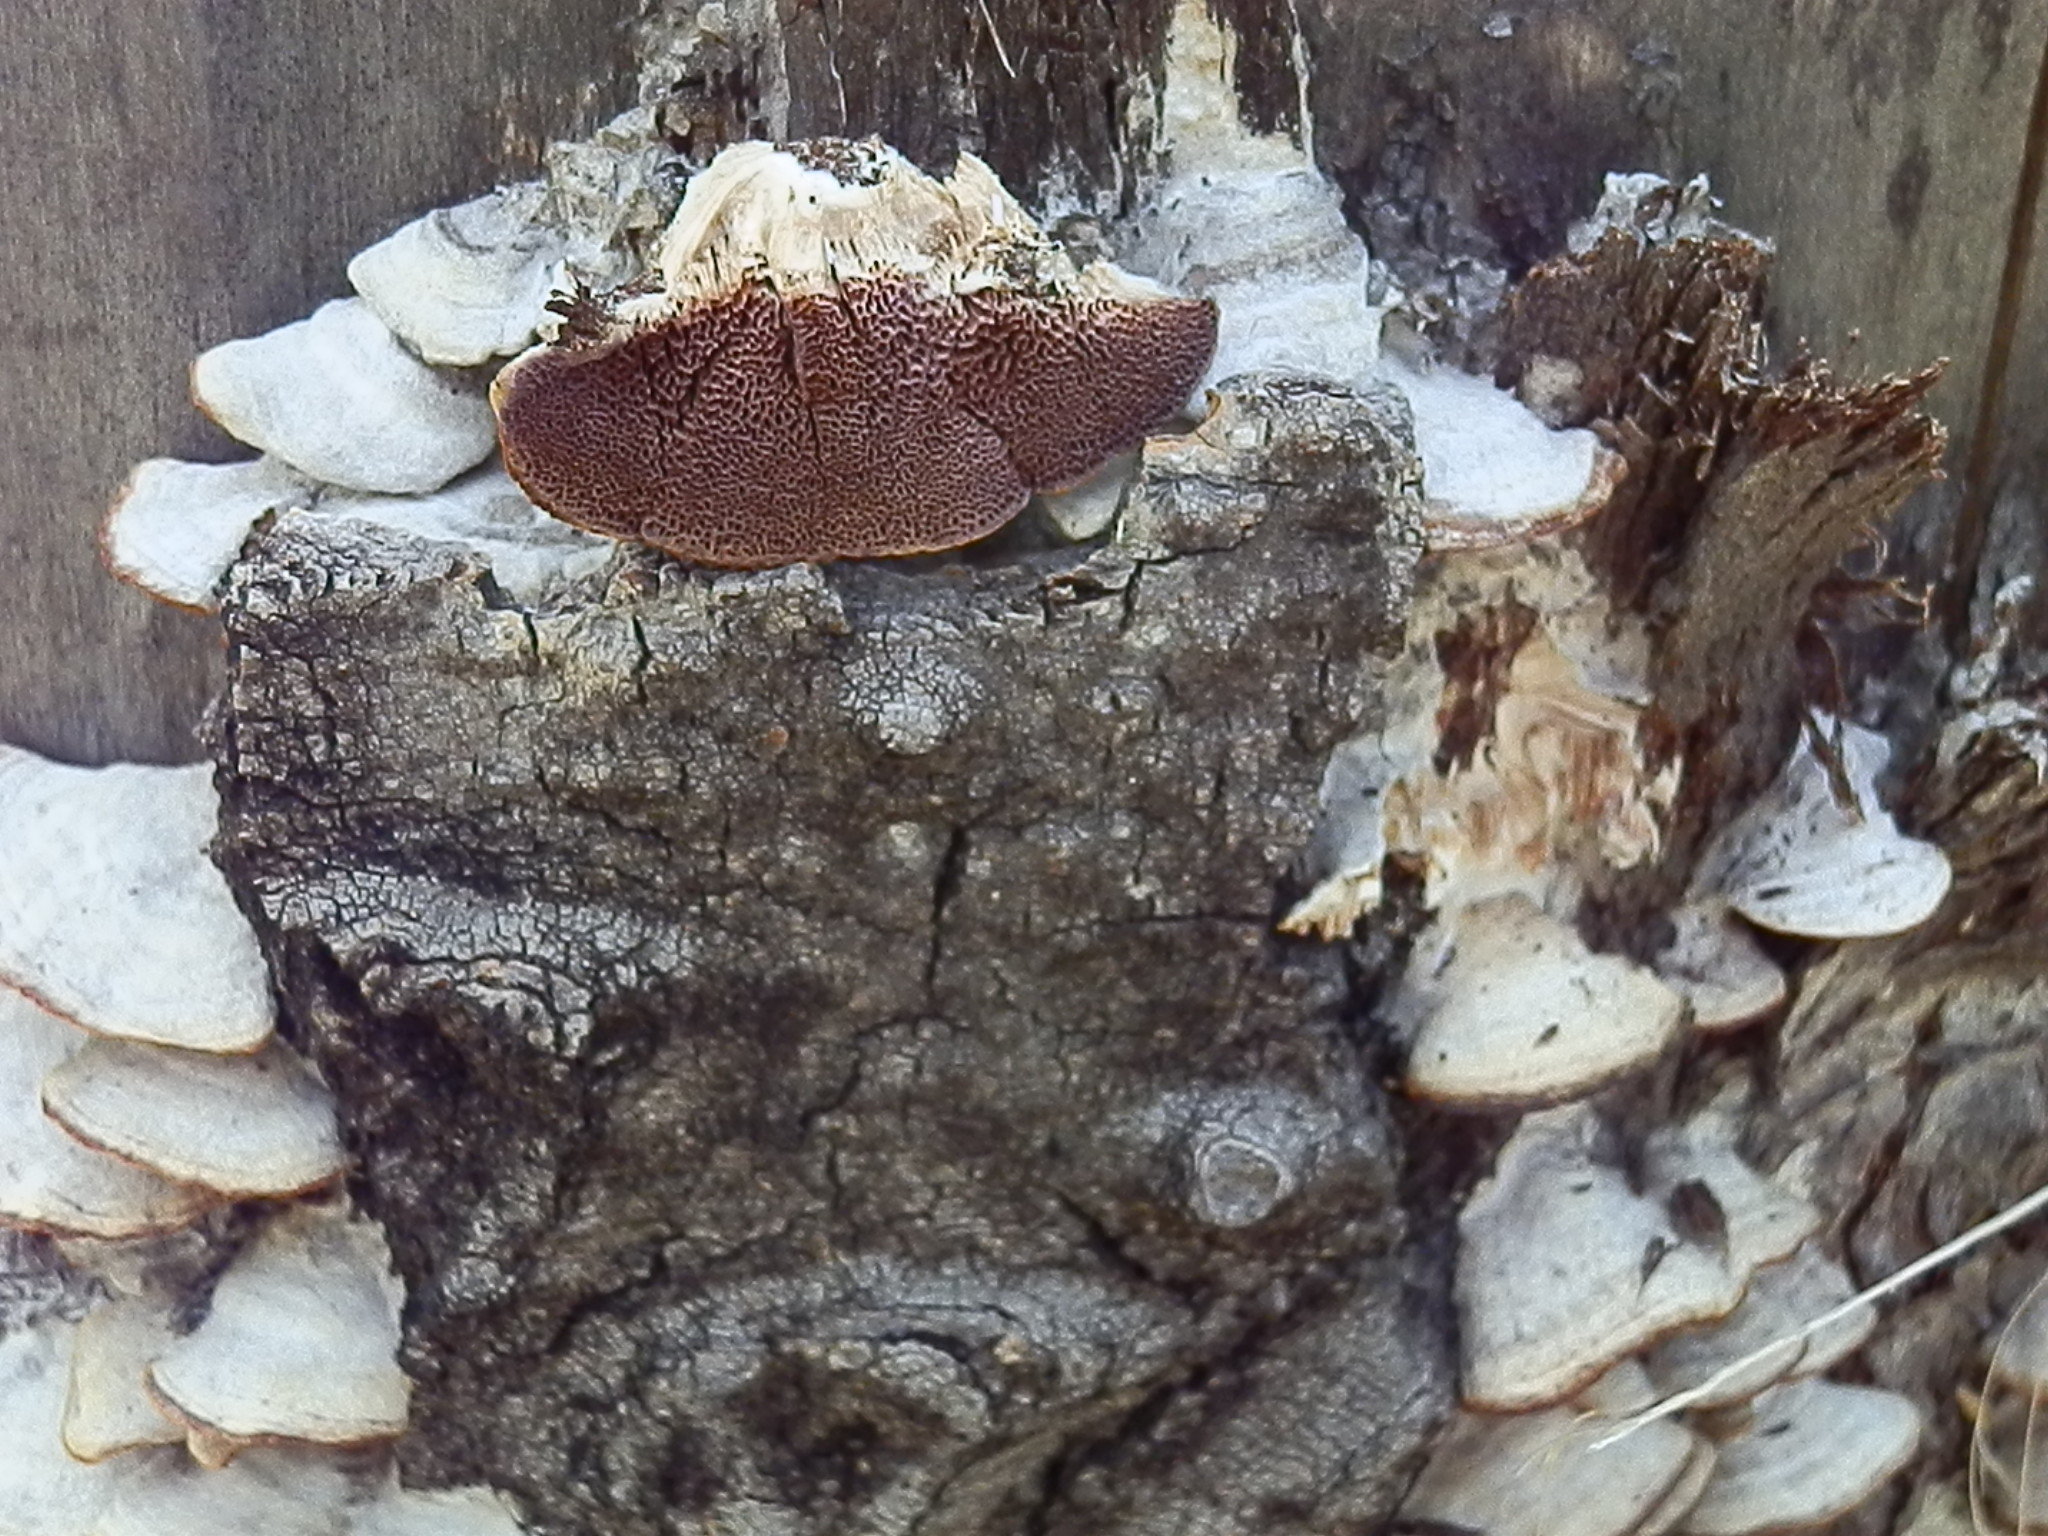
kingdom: Fungi
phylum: Basidiomycota
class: Agaricomycetes
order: Hymenochaetales
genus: Trichaptum
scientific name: Trichaptum biforme
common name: Violet-toothed polypore
